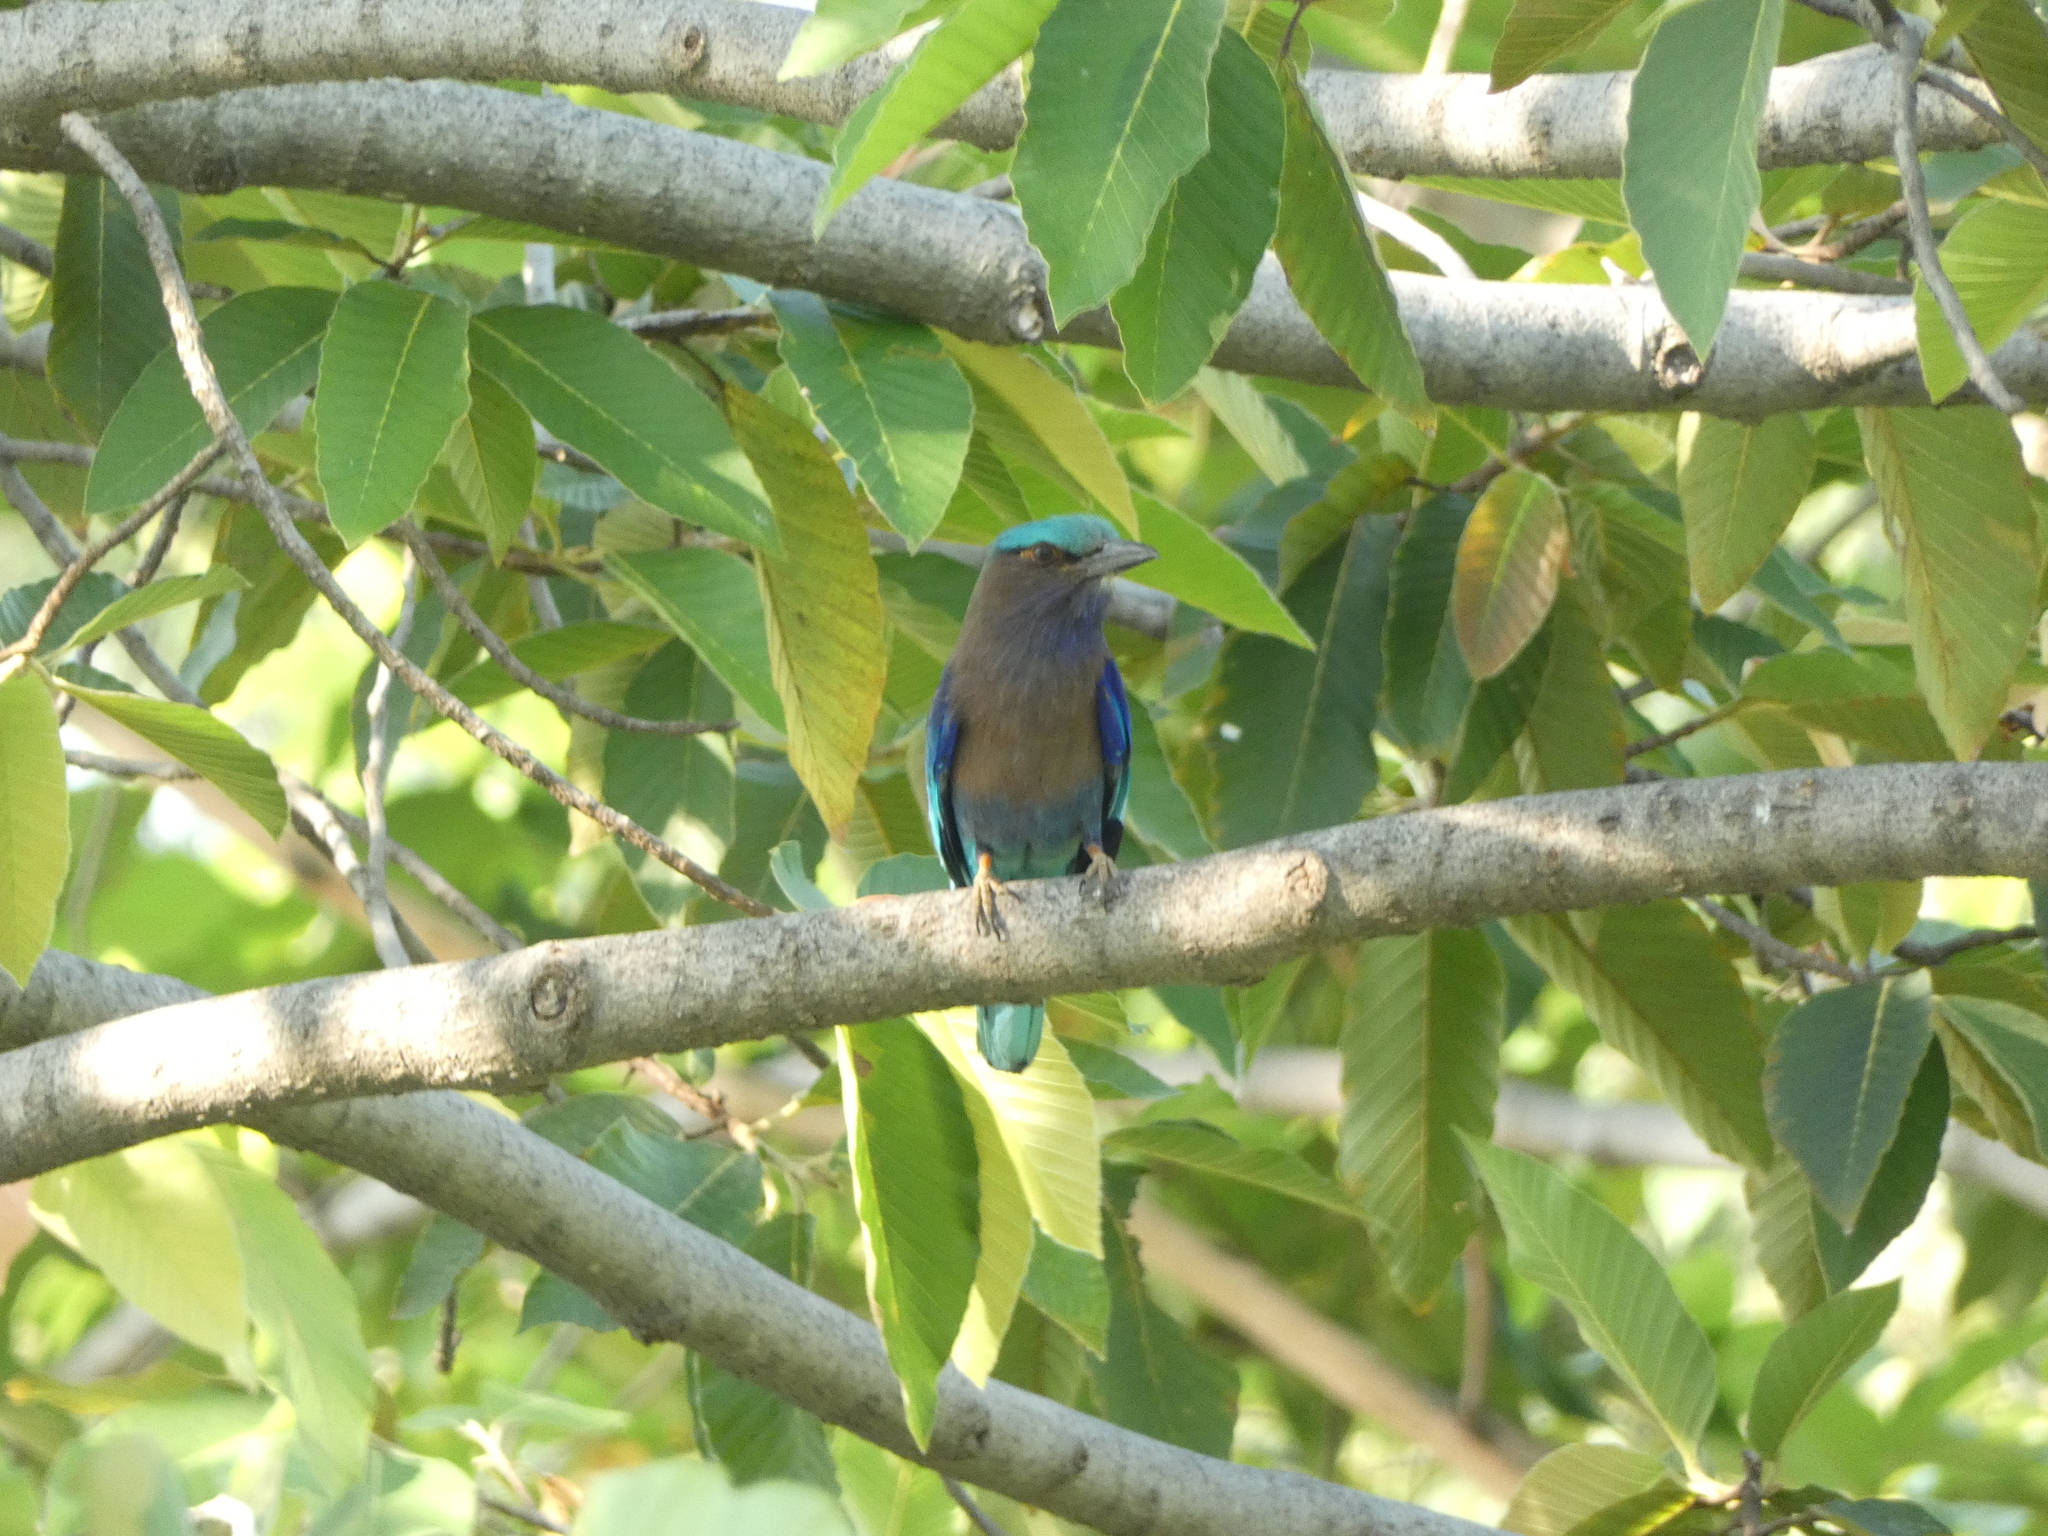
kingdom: Animalia
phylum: Chordata
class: Aves
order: Coraciiformes
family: Coraciidae
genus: Coracias
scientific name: Coracias affinis
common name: Indochinese roller
